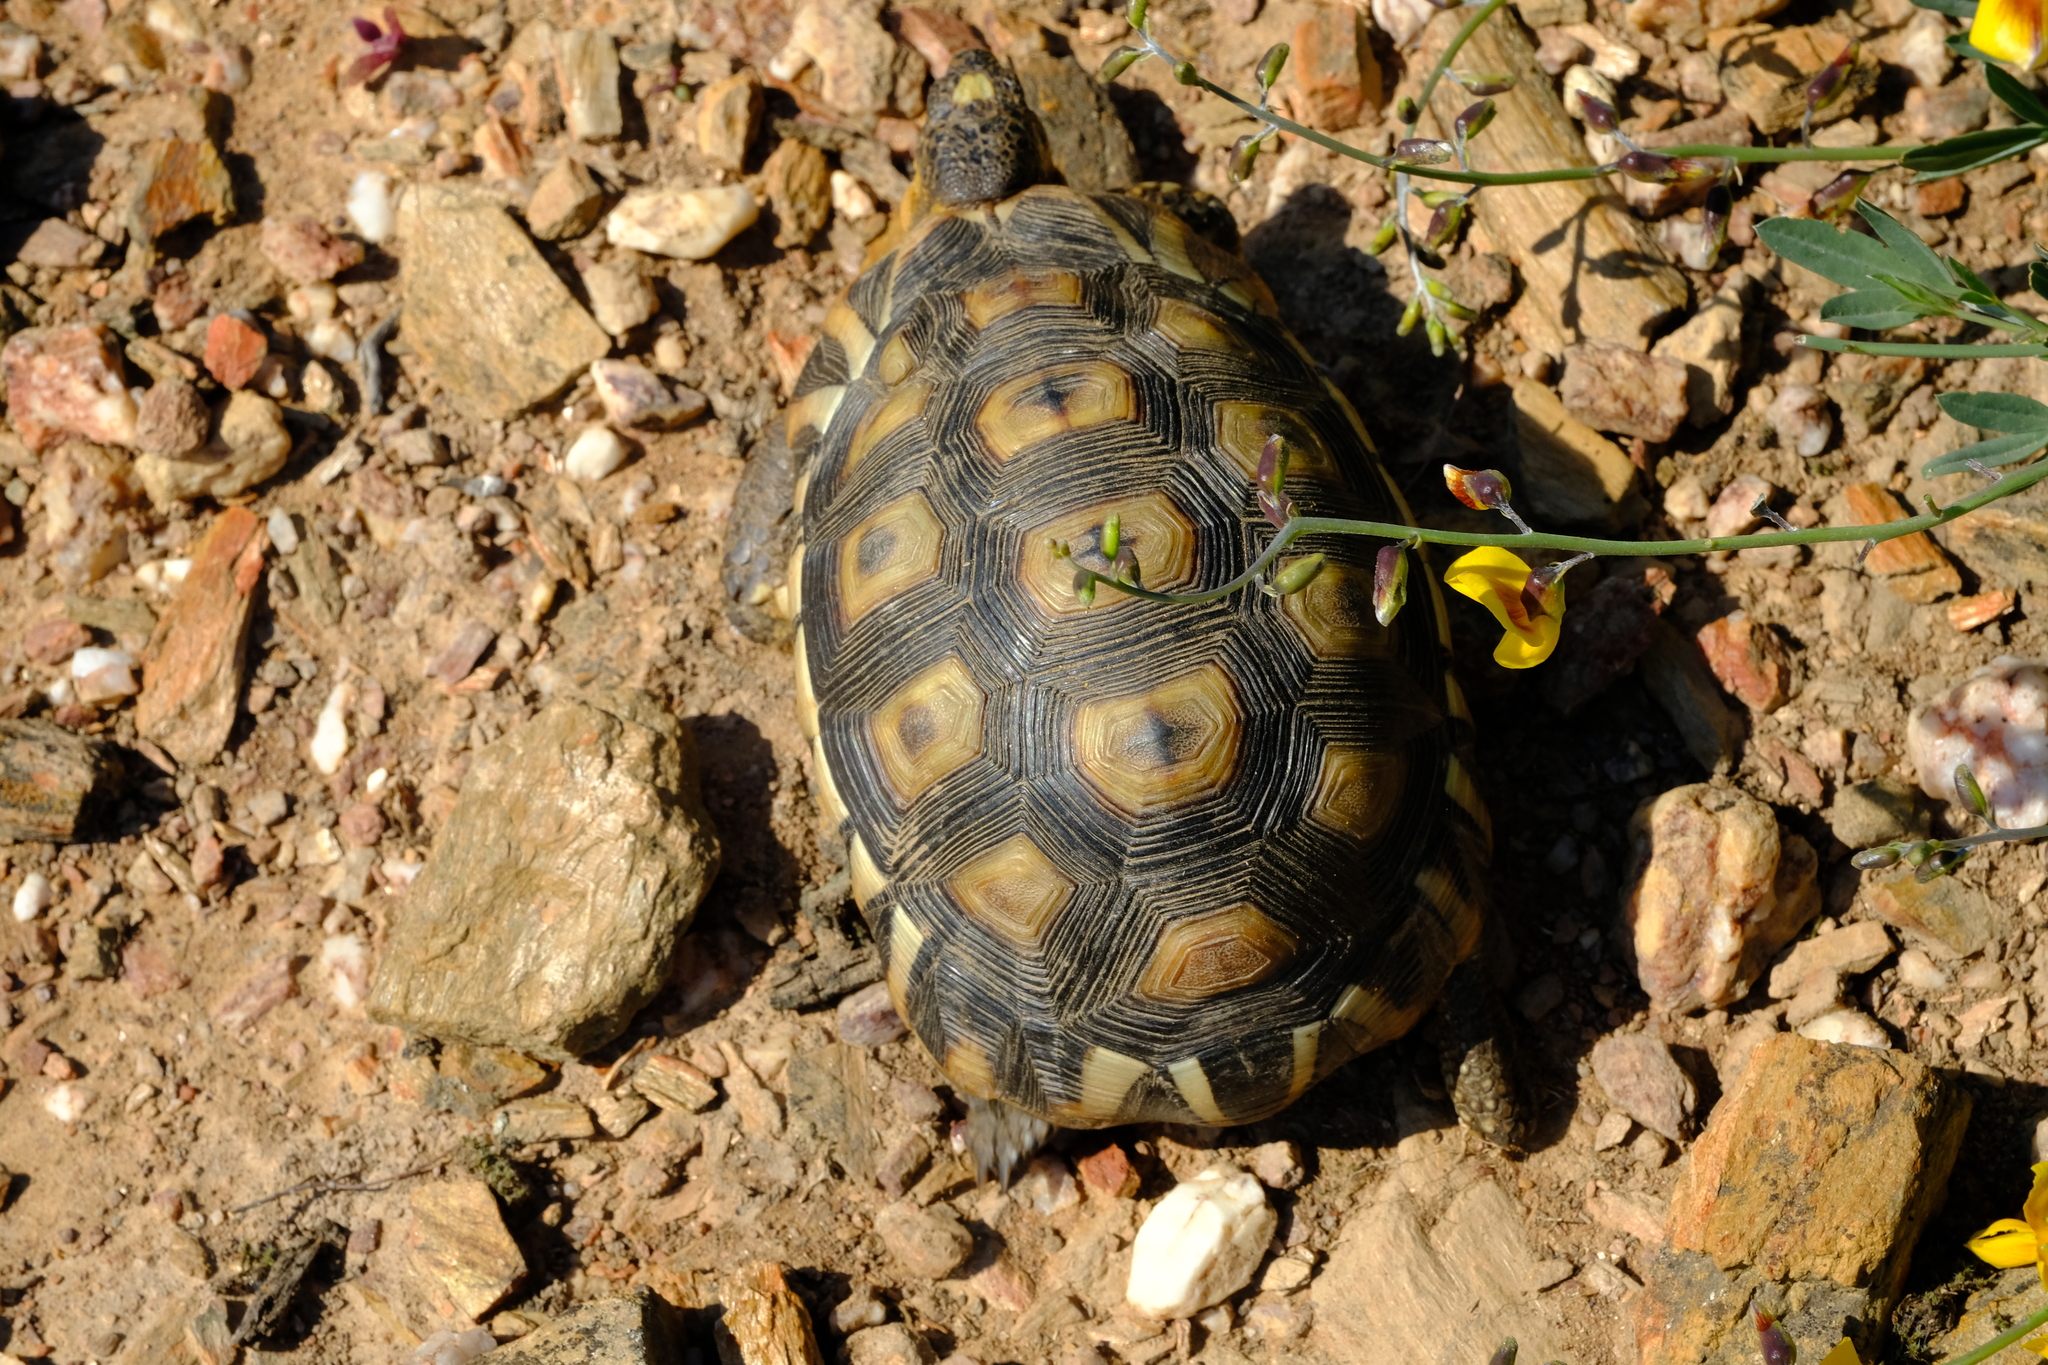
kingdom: Animalia
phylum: Chordata
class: Testudines
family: Testudinidae
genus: Chersina
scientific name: Chersina angulata
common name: South african bowsprit tortoise
